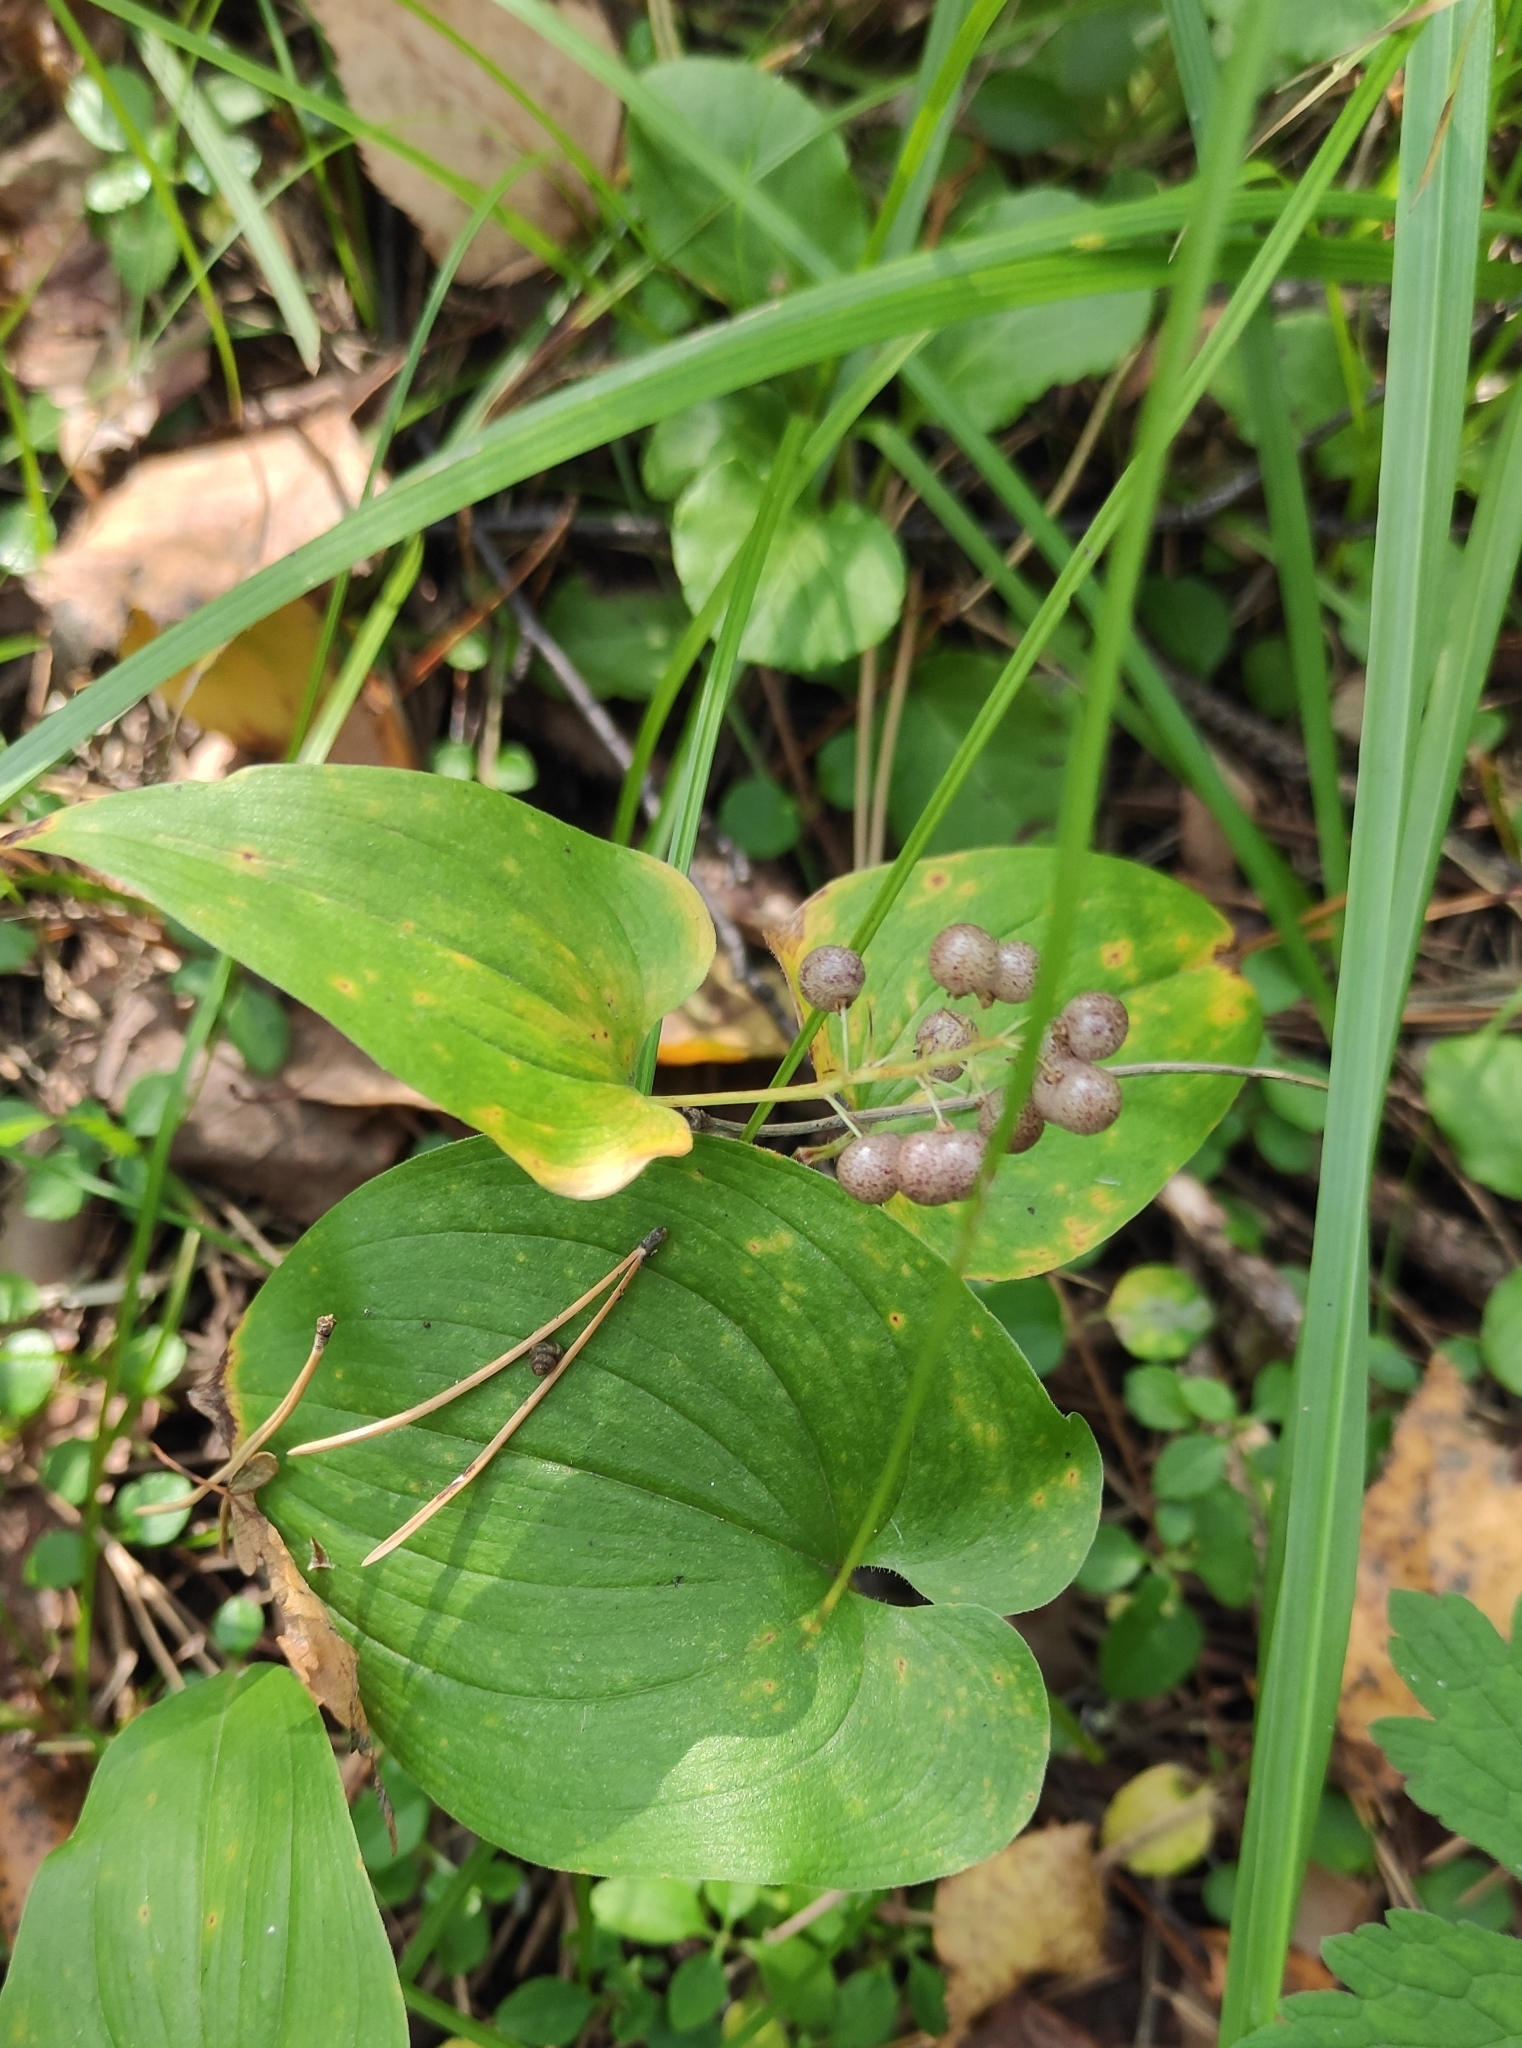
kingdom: Plantae
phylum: Tracheophyta
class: Liliopsida
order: Asparagales
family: Asparagaceae
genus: Maianthemum
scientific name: Maianthemum bifolium
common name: May lily
